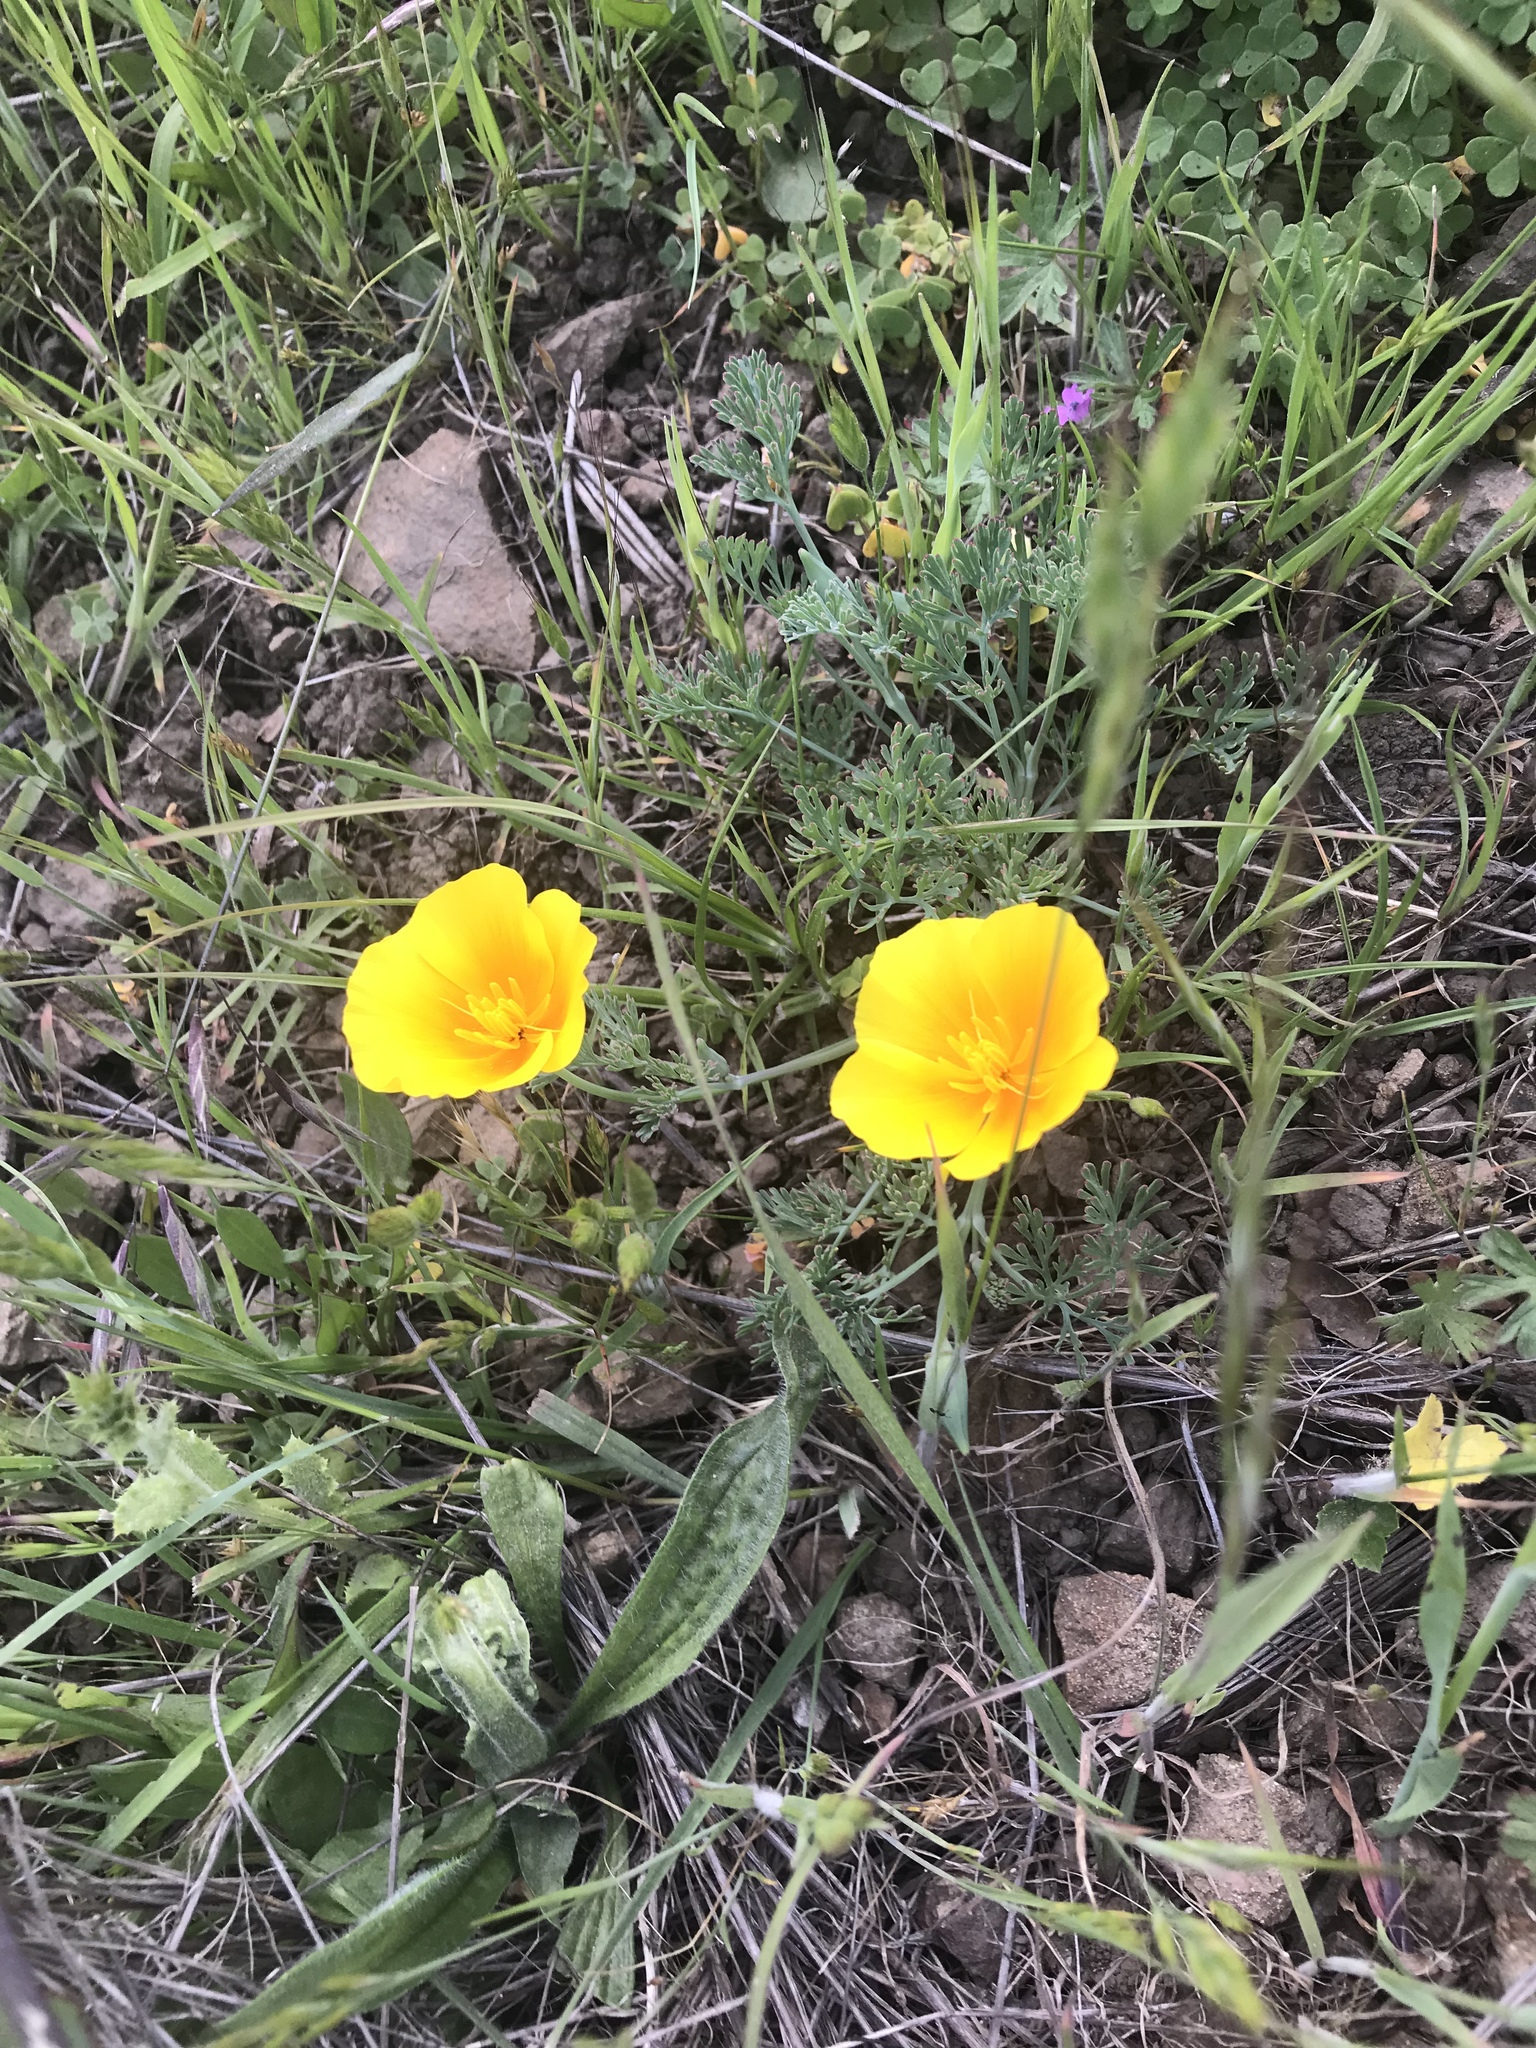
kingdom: Plantae
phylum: Tracheophyta
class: Magnoliopsida
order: Ranunculales
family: Papaveraceae
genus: Eschscholzia
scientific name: Eschscholzia californica
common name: California poppy
